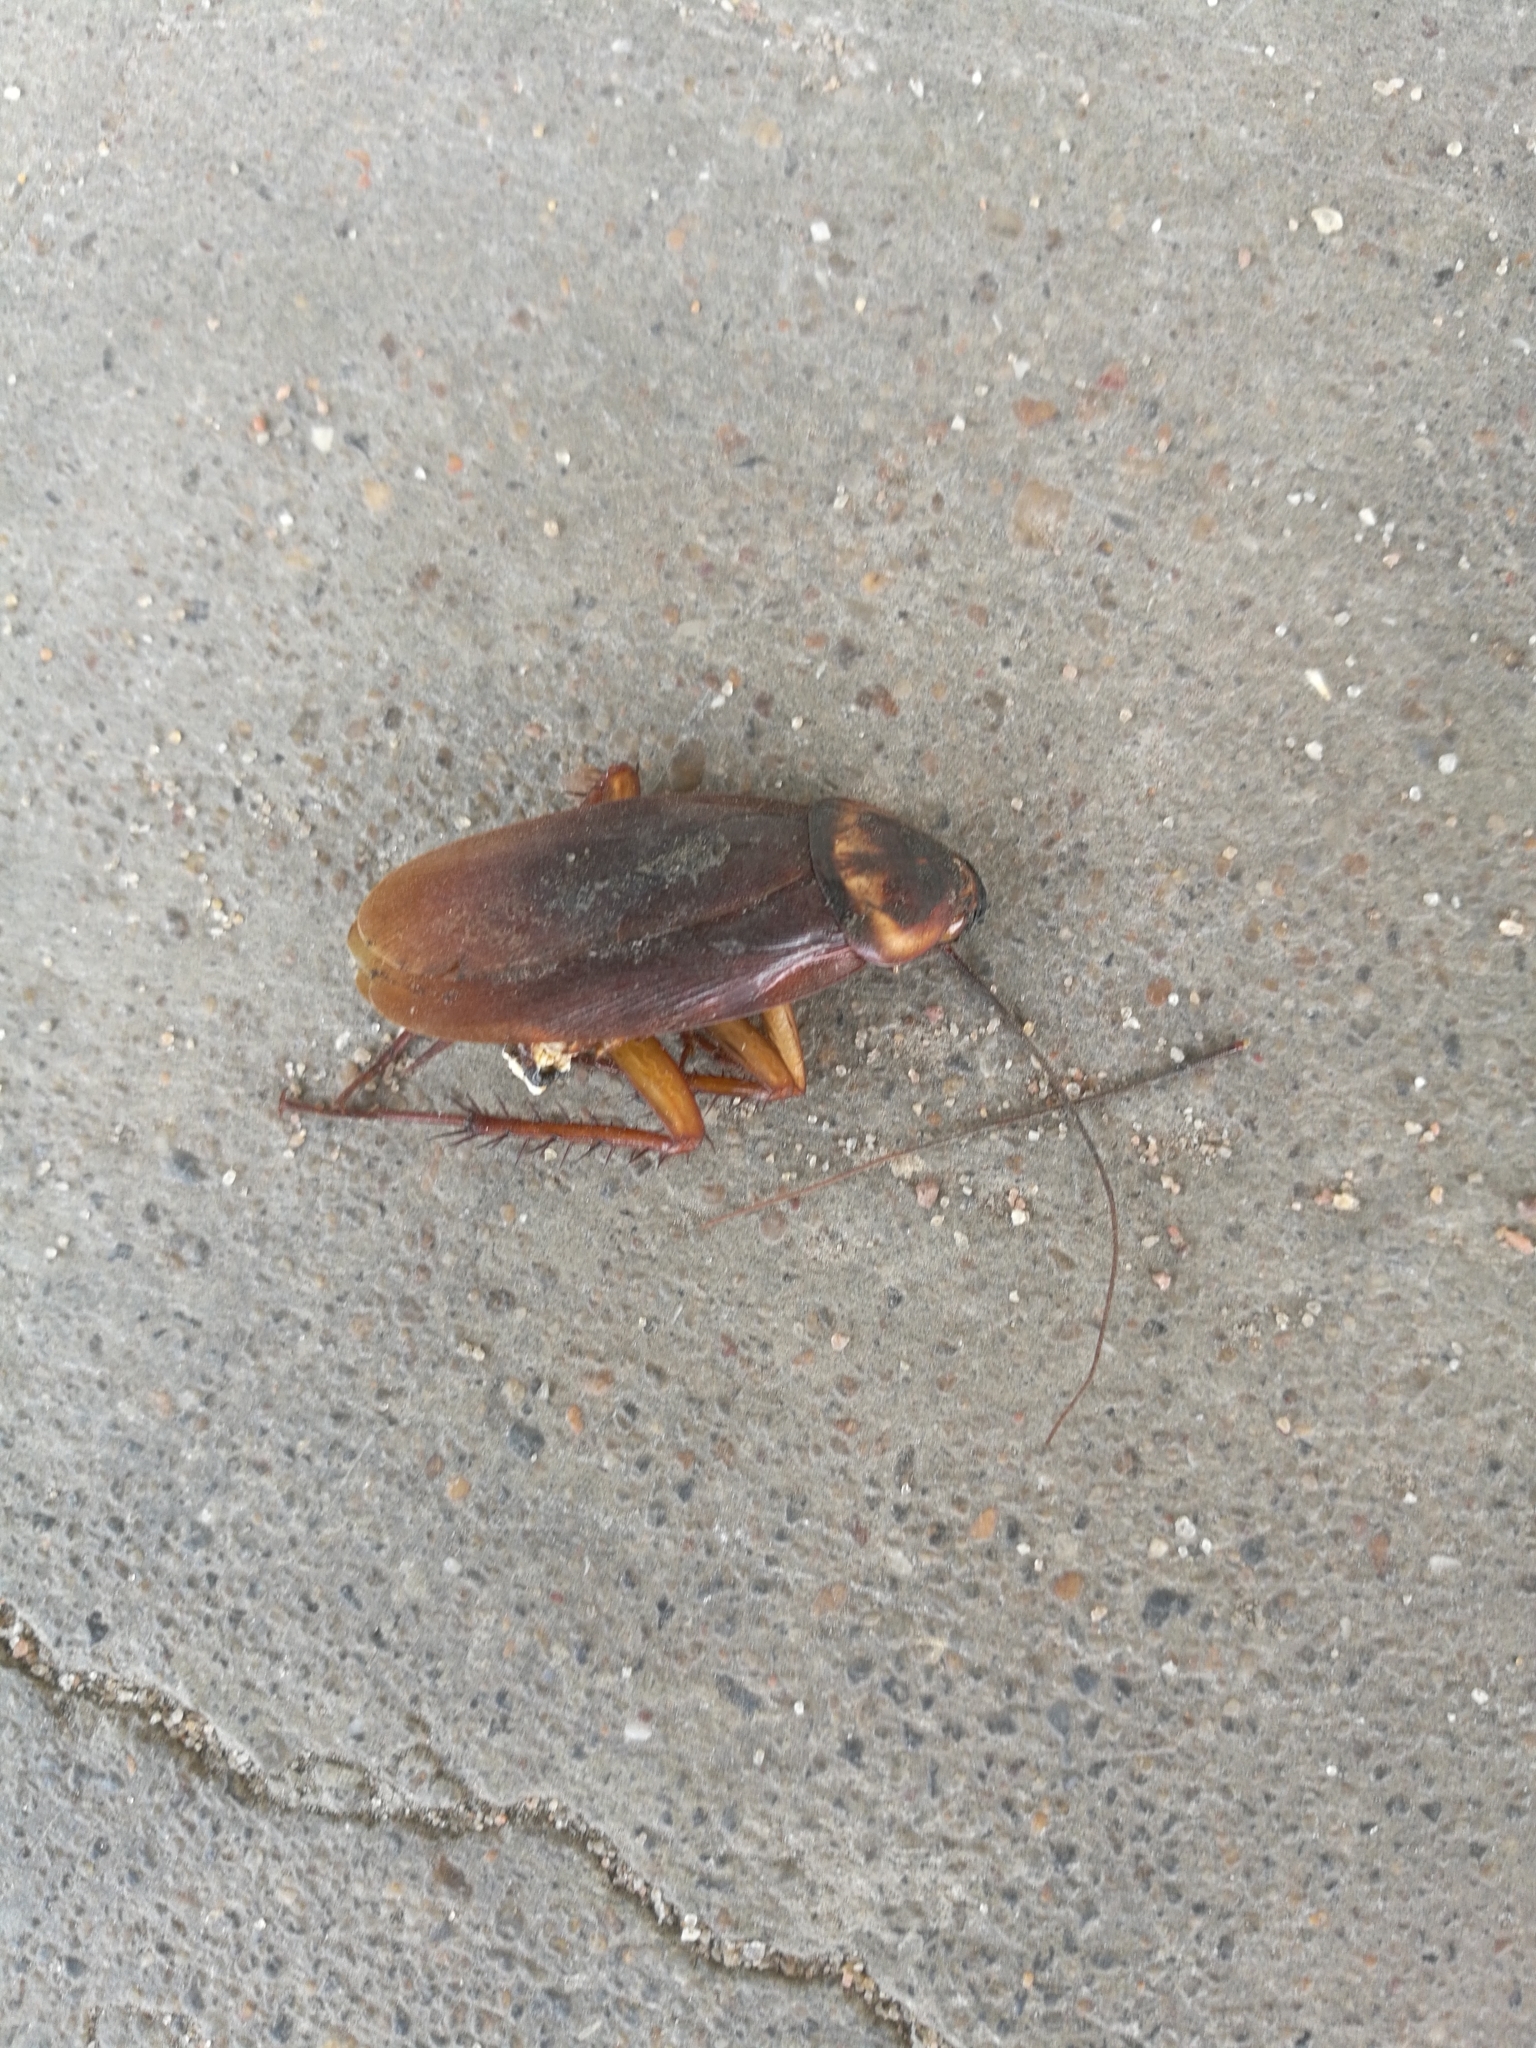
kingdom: Animalia
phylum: Arthropoda
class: Insecta
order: Blattodea
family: Blattidae
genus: Periplaneta
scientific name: Periplaneta americana
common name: American cockroach
